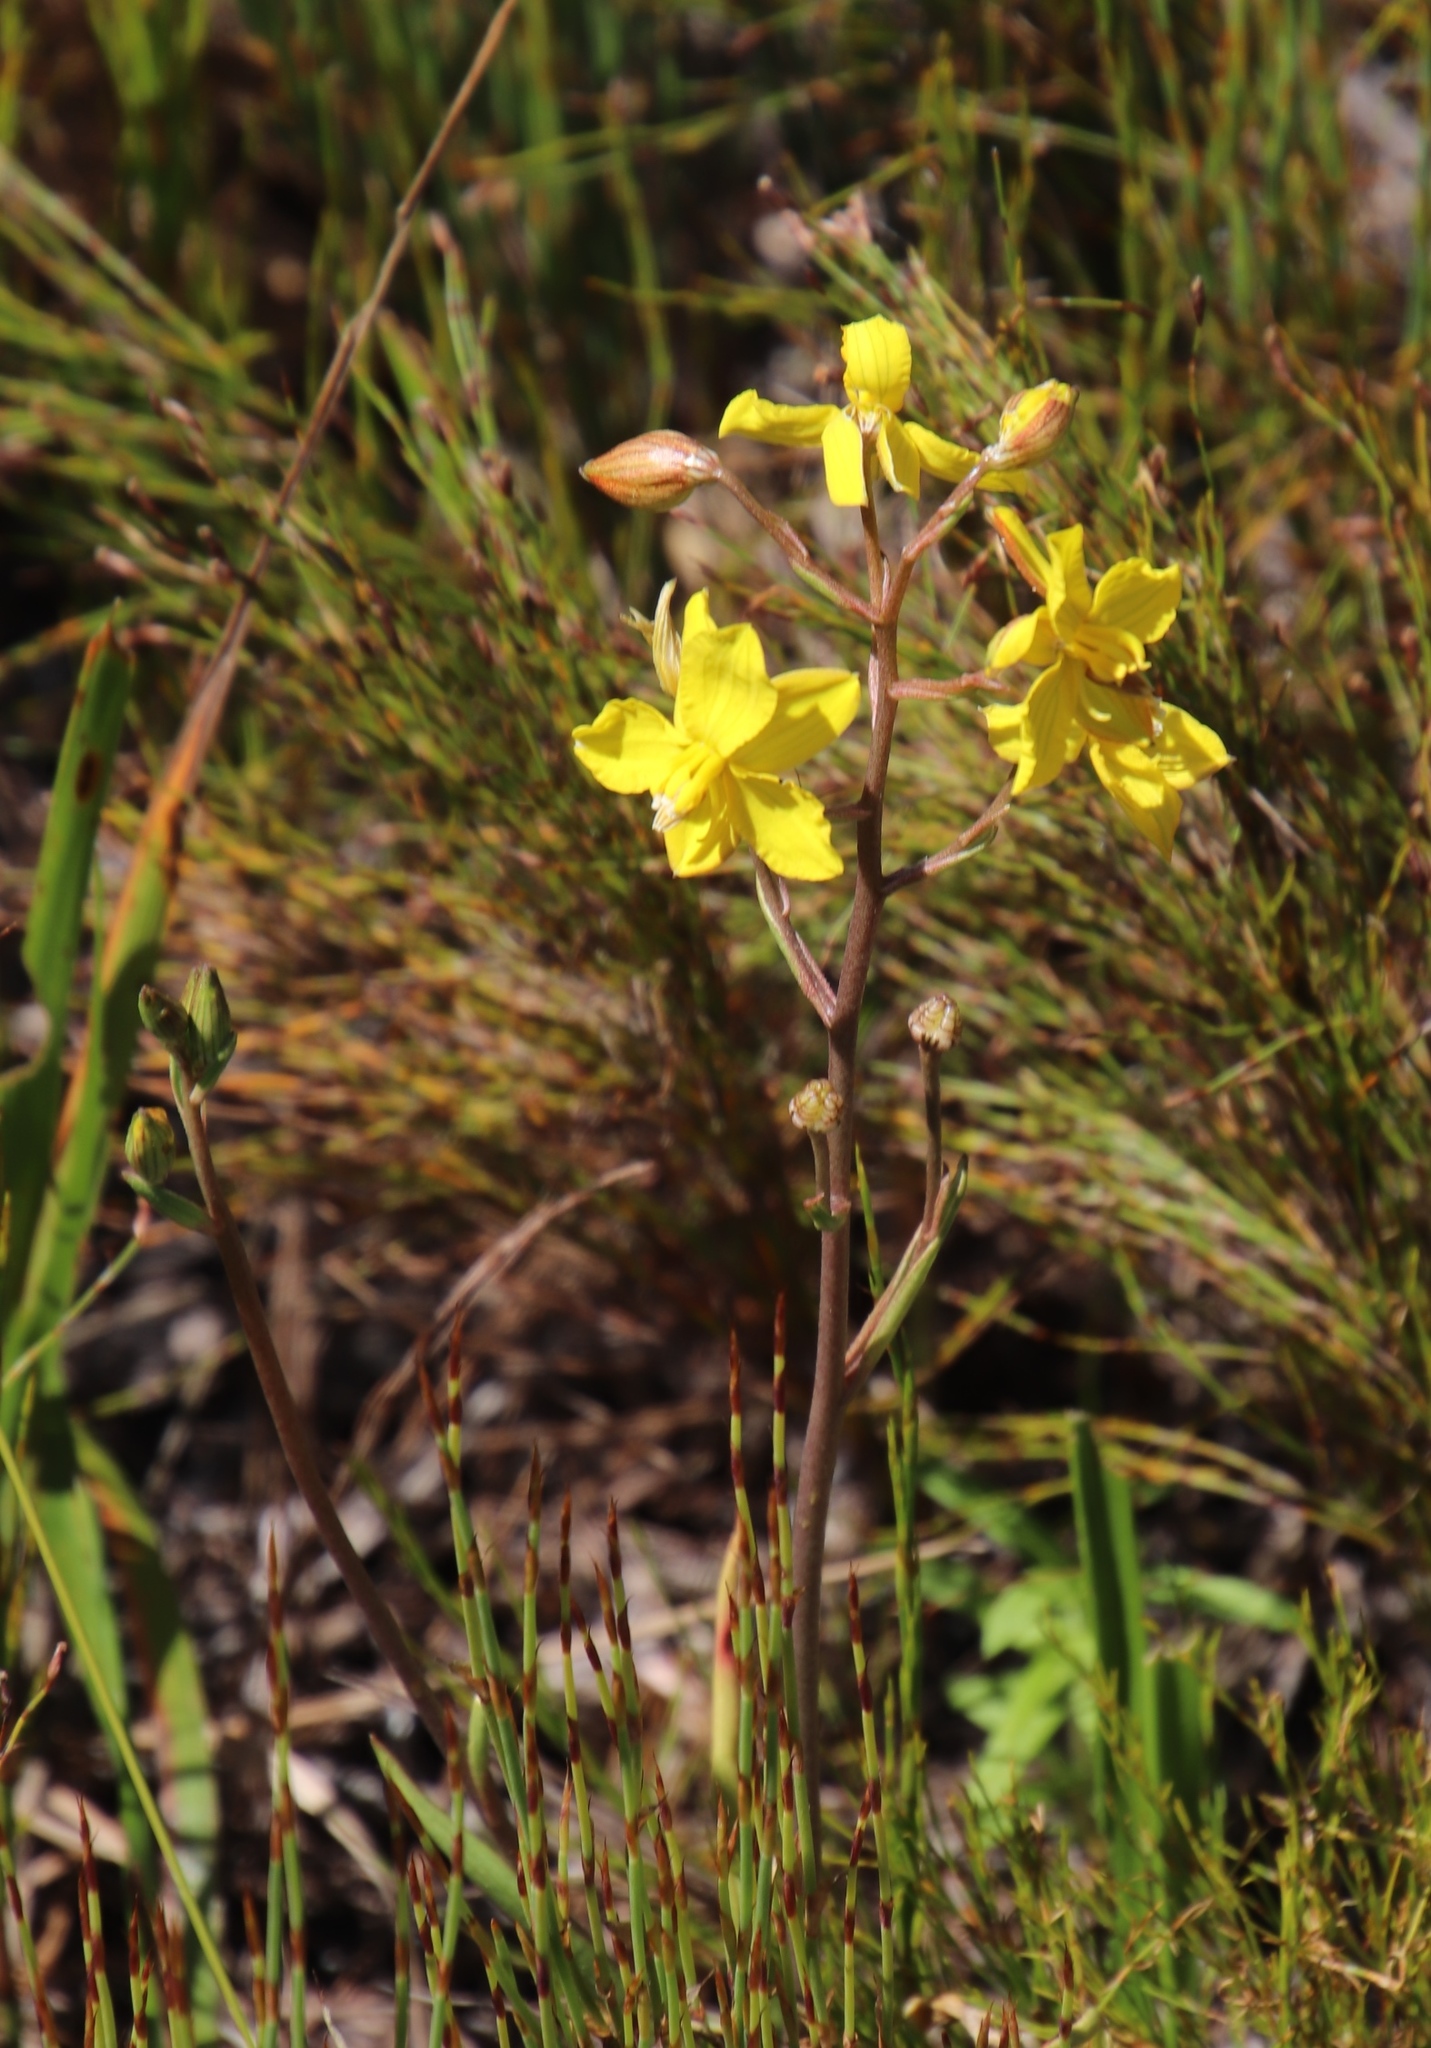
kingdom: Plantae
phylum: Tracheophyta
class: Liliopsida
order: Asparagales
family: Tecophilaeaceae
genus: Cyanella
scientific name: Cyanella lutea
